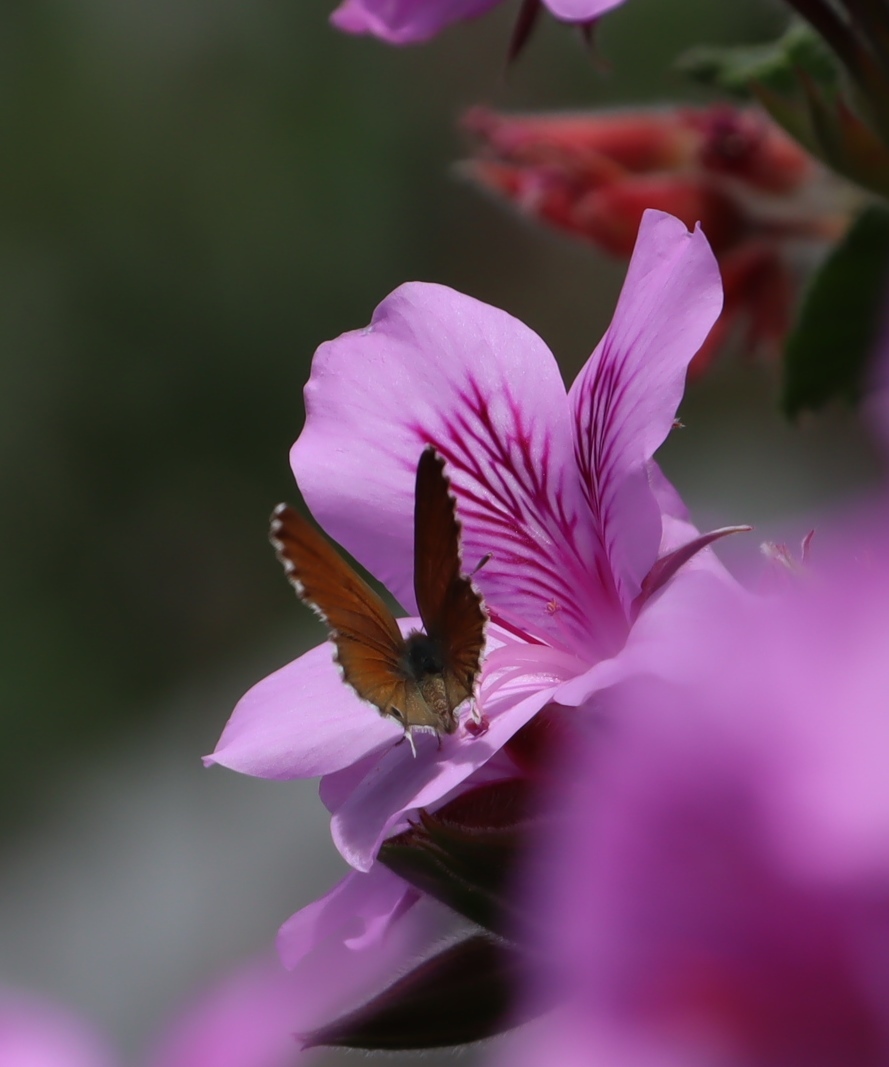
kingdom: Animalia
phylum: Arthropoda
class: Insecta
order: Lepidoptera
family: Lycaenidae
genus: Cacyreus
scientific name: Cacyreus marshalli
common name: Geranium bronze
